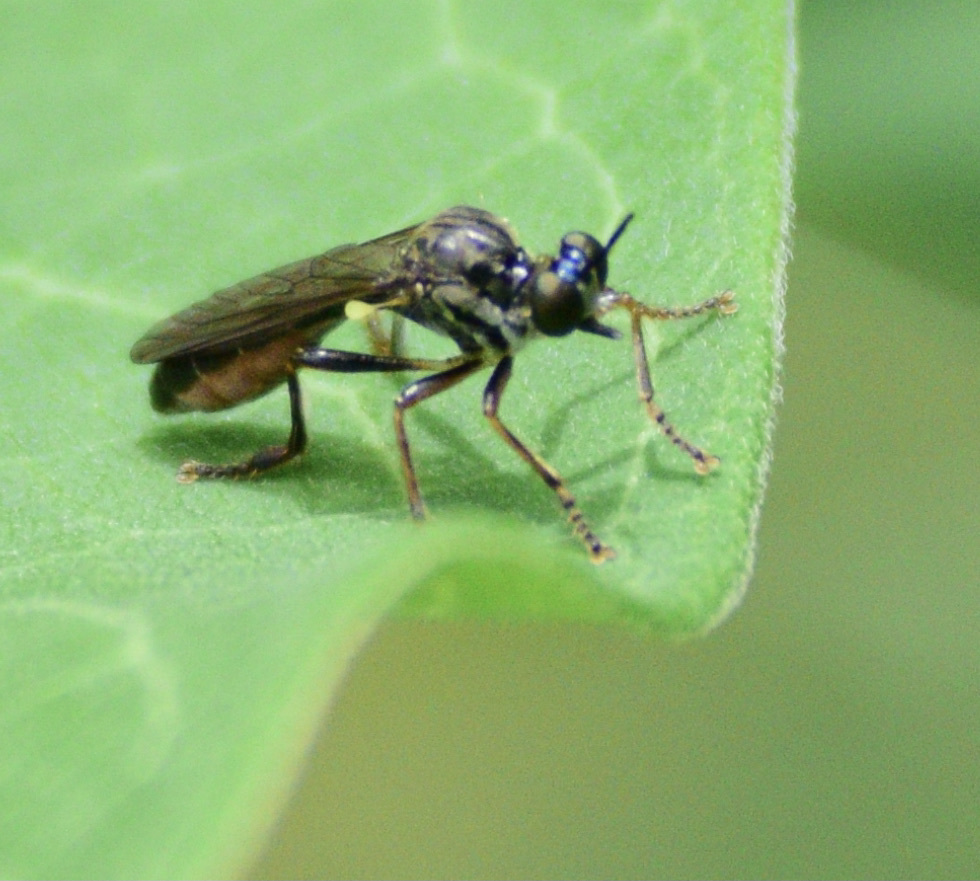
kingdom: Animalia
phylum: Arthropoda
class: Insecta
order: Diptera
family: Asilidae
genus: Dioctria
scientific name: Dioctria hyalipennis
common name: Stripe-legged robberfly
